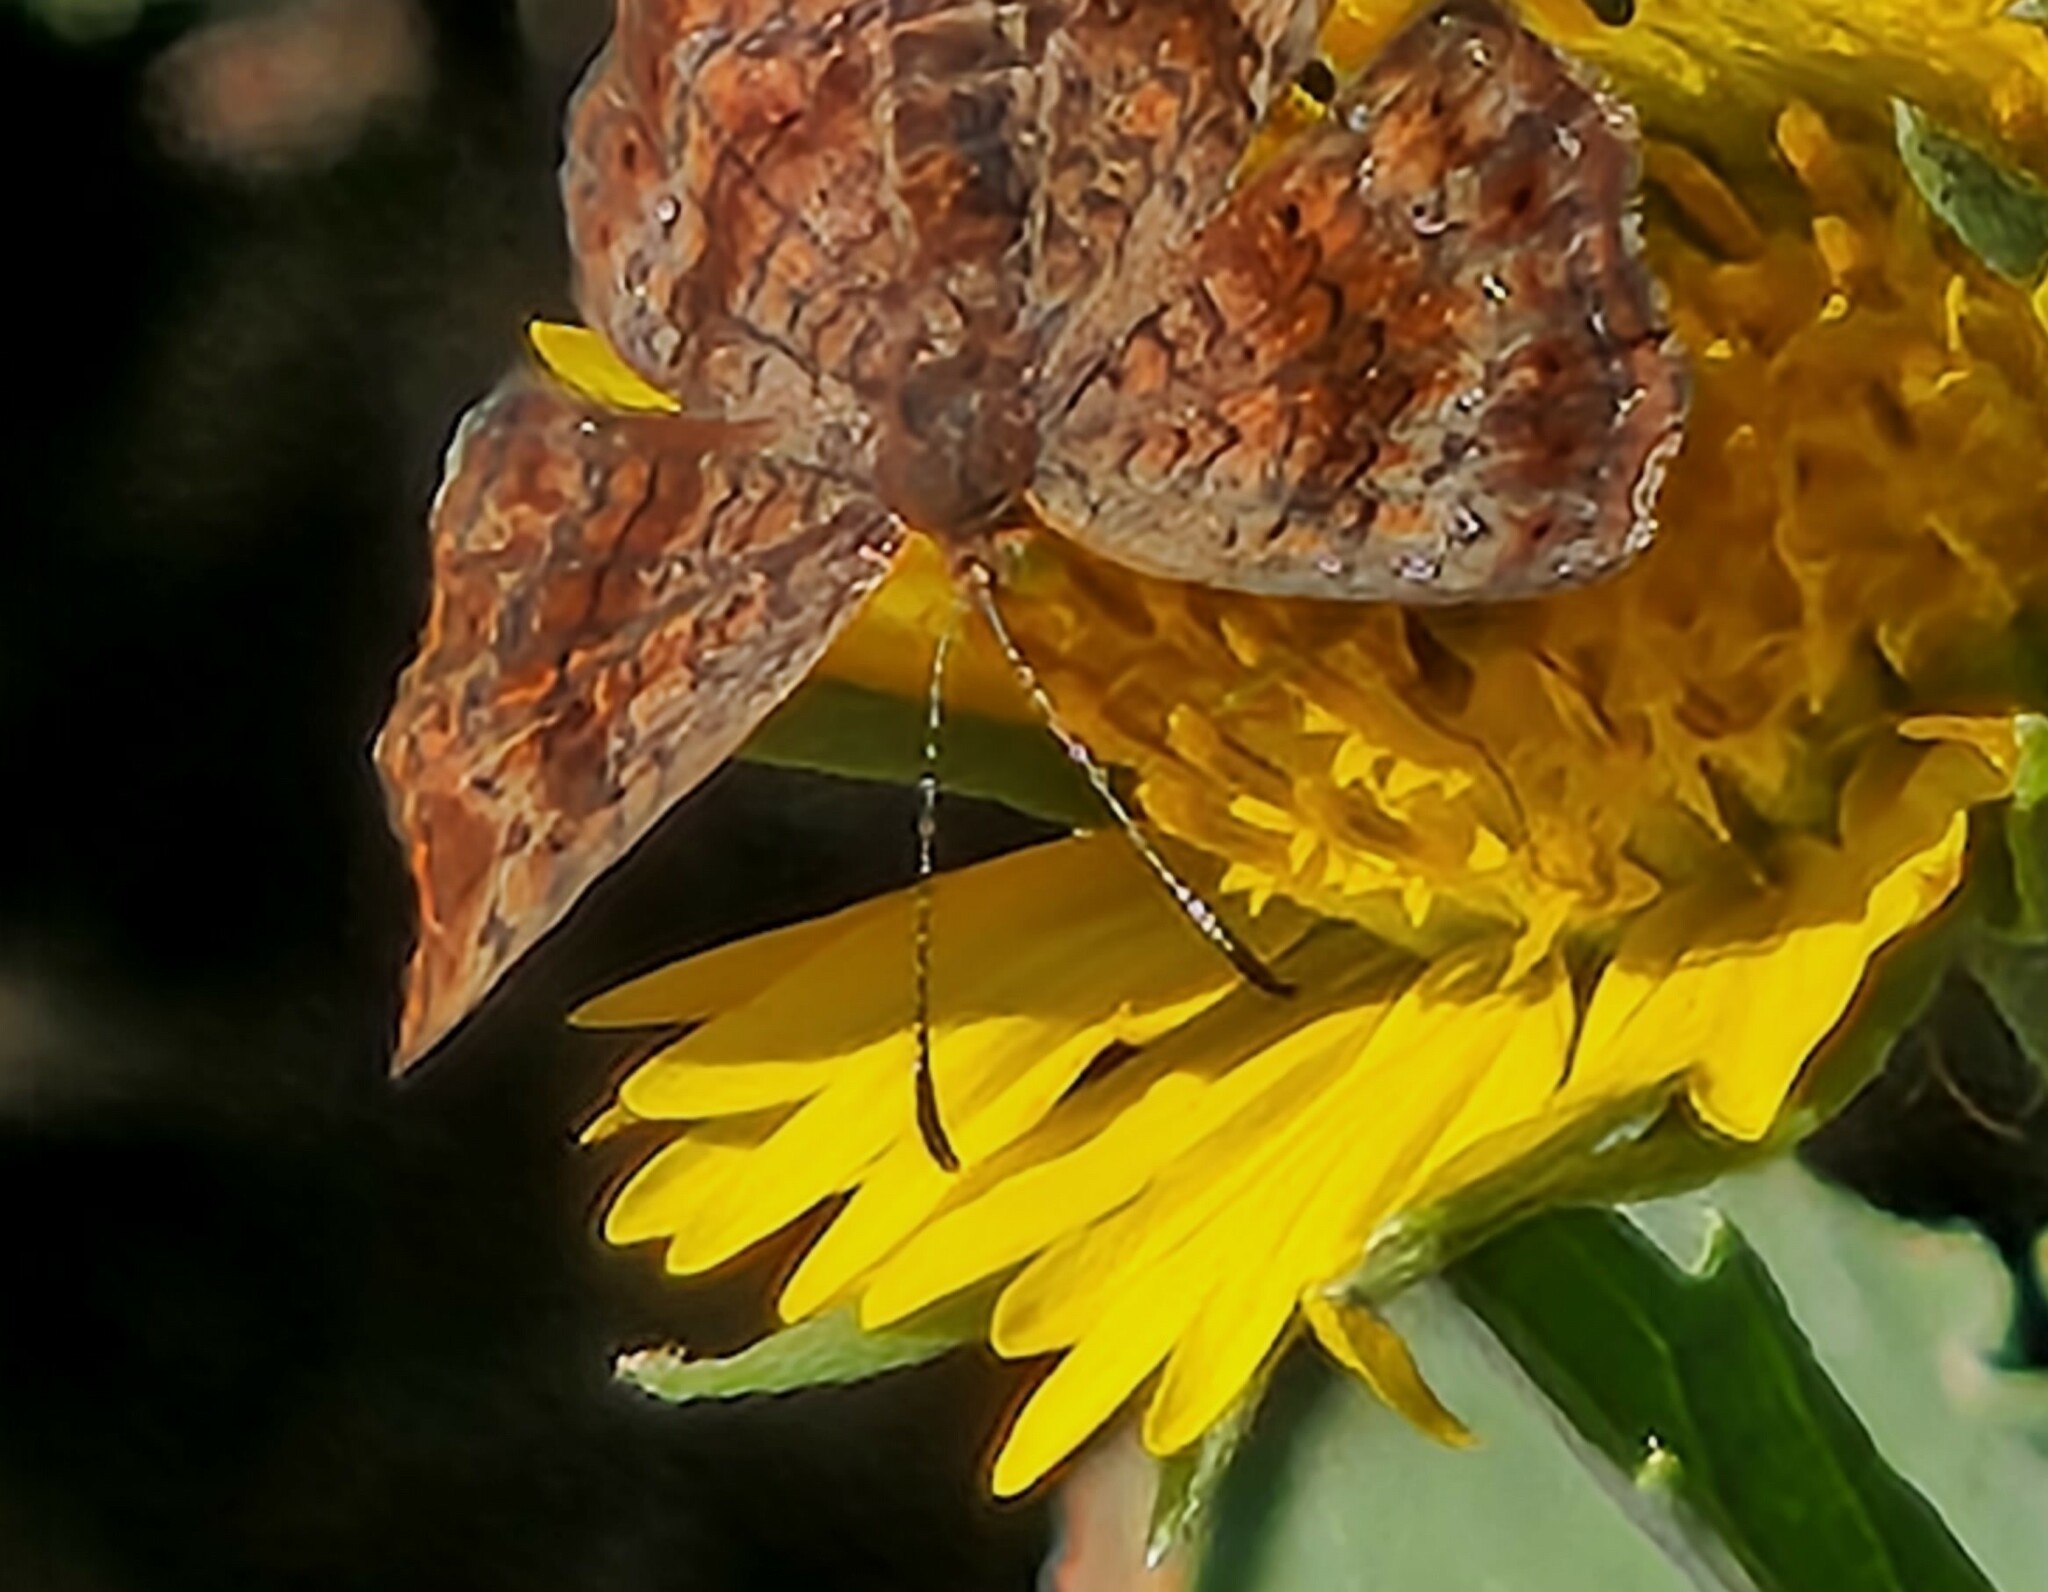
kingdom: Animalia
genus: Calephelis
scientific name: Calephelis perditalis
